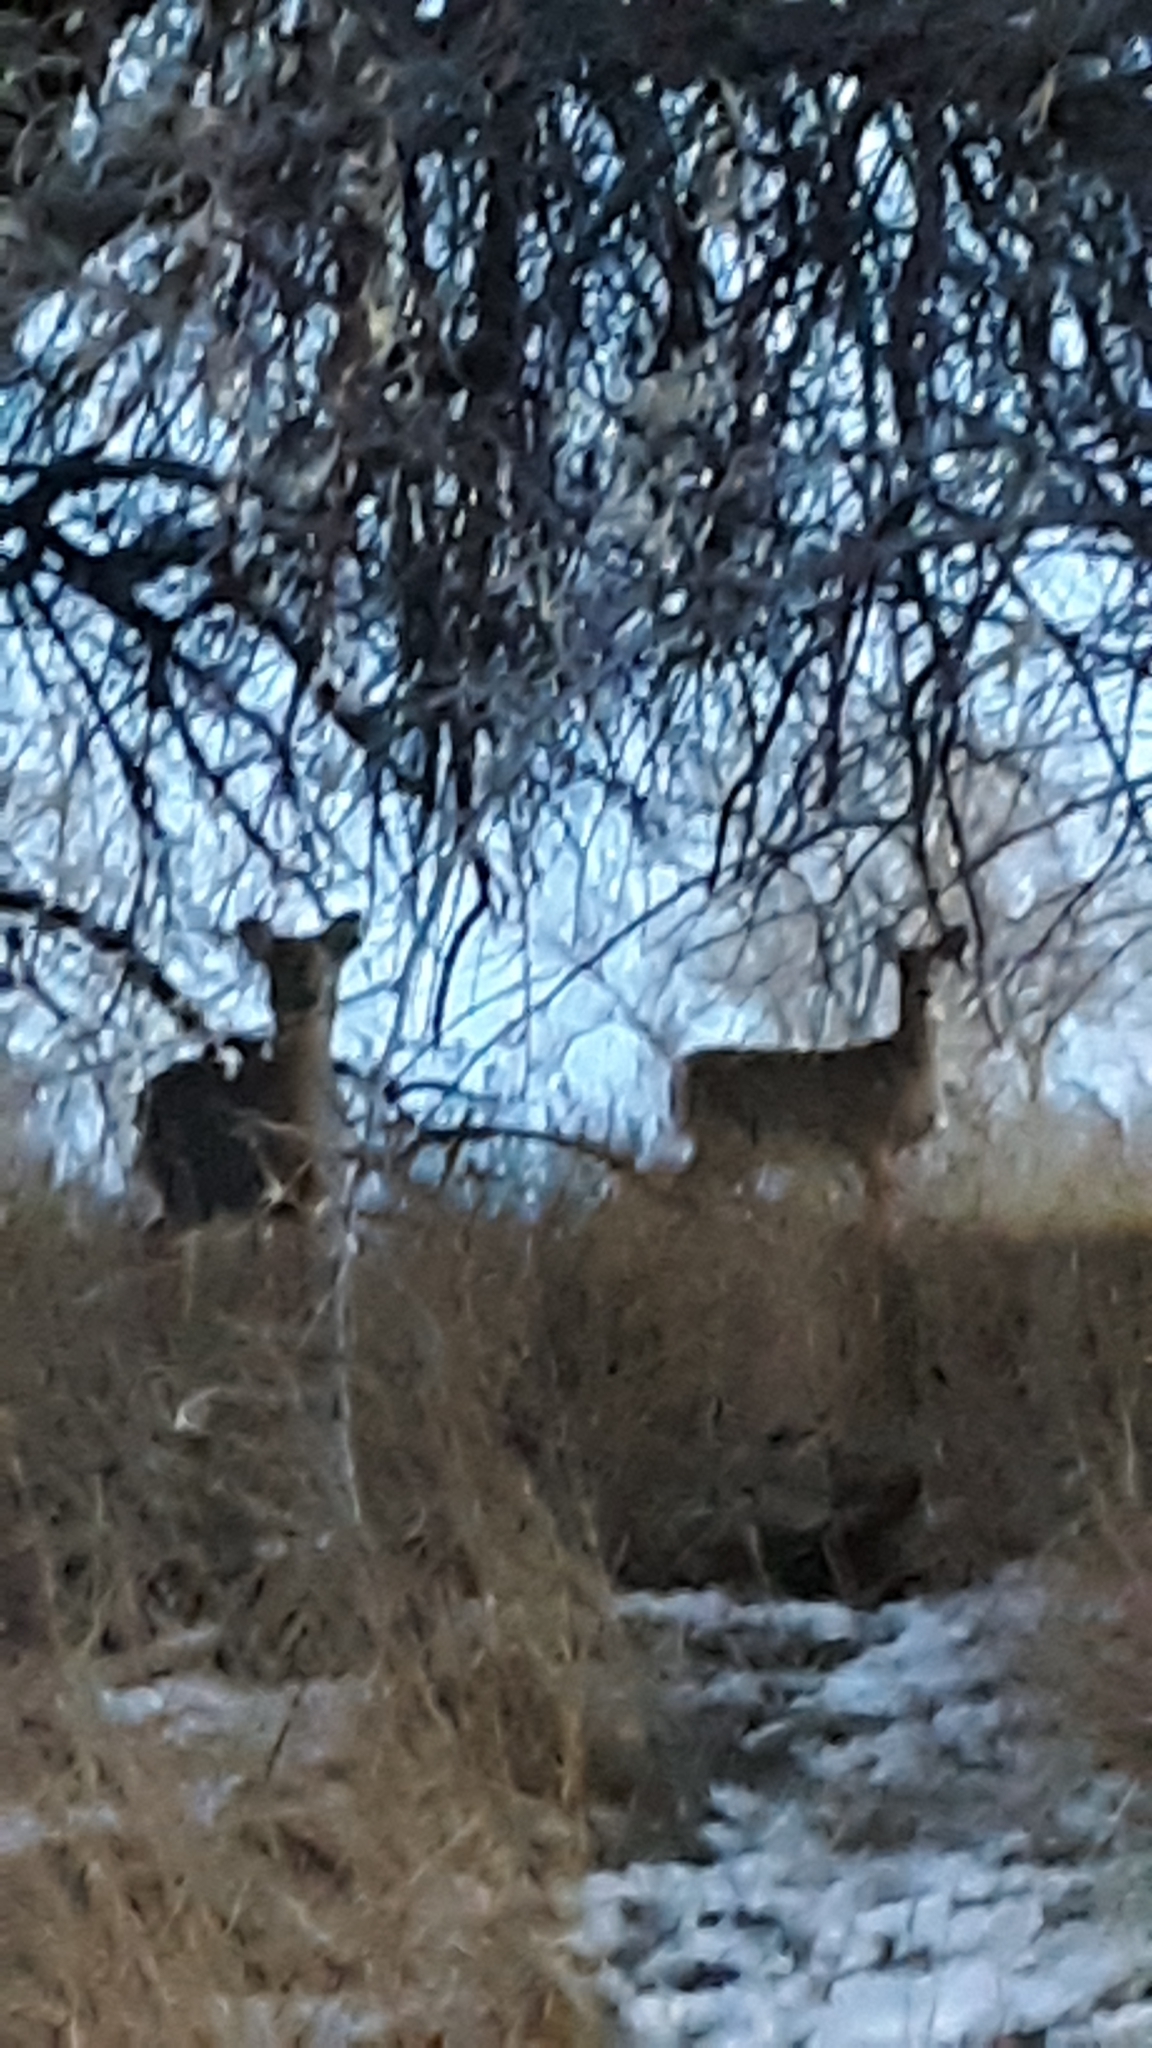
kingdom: Animalia
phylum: Chordata
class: Mammalia
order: Artiodactyla
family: Cervidae
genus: Odocoileus
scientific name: Odocoileus virginianus
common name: White-tailed deer
